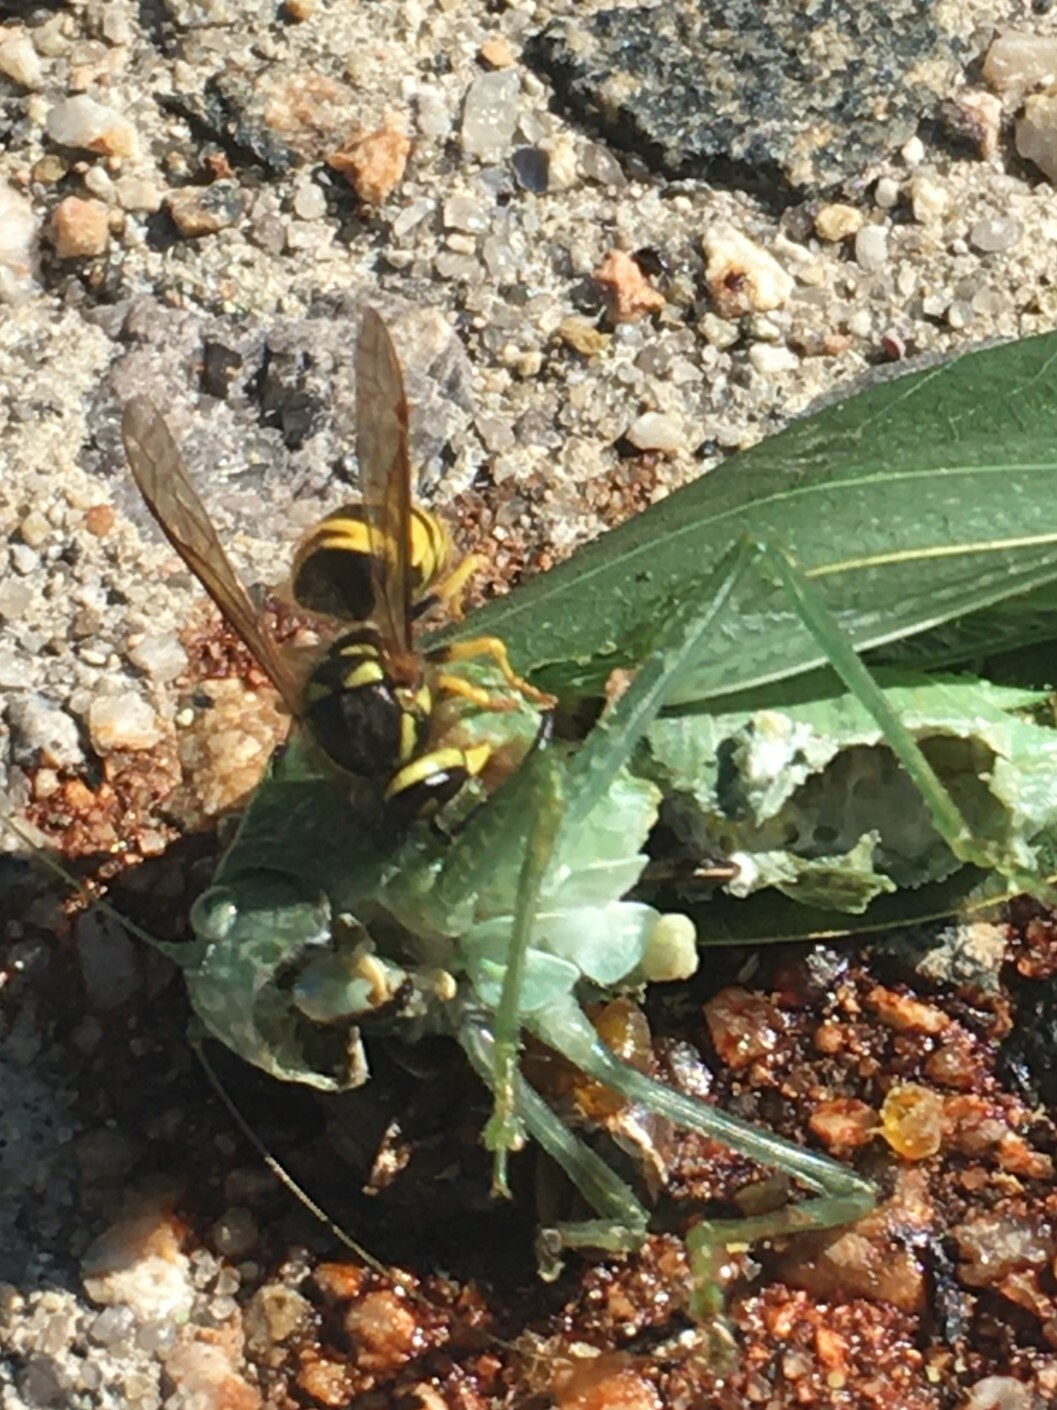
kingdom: Animalia
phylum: Arthropoda
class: Insecta
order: Hymenoptera
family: Vespidae
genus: Vespula
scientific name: Vespula maculifrons
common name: Eastern yellowjacket
